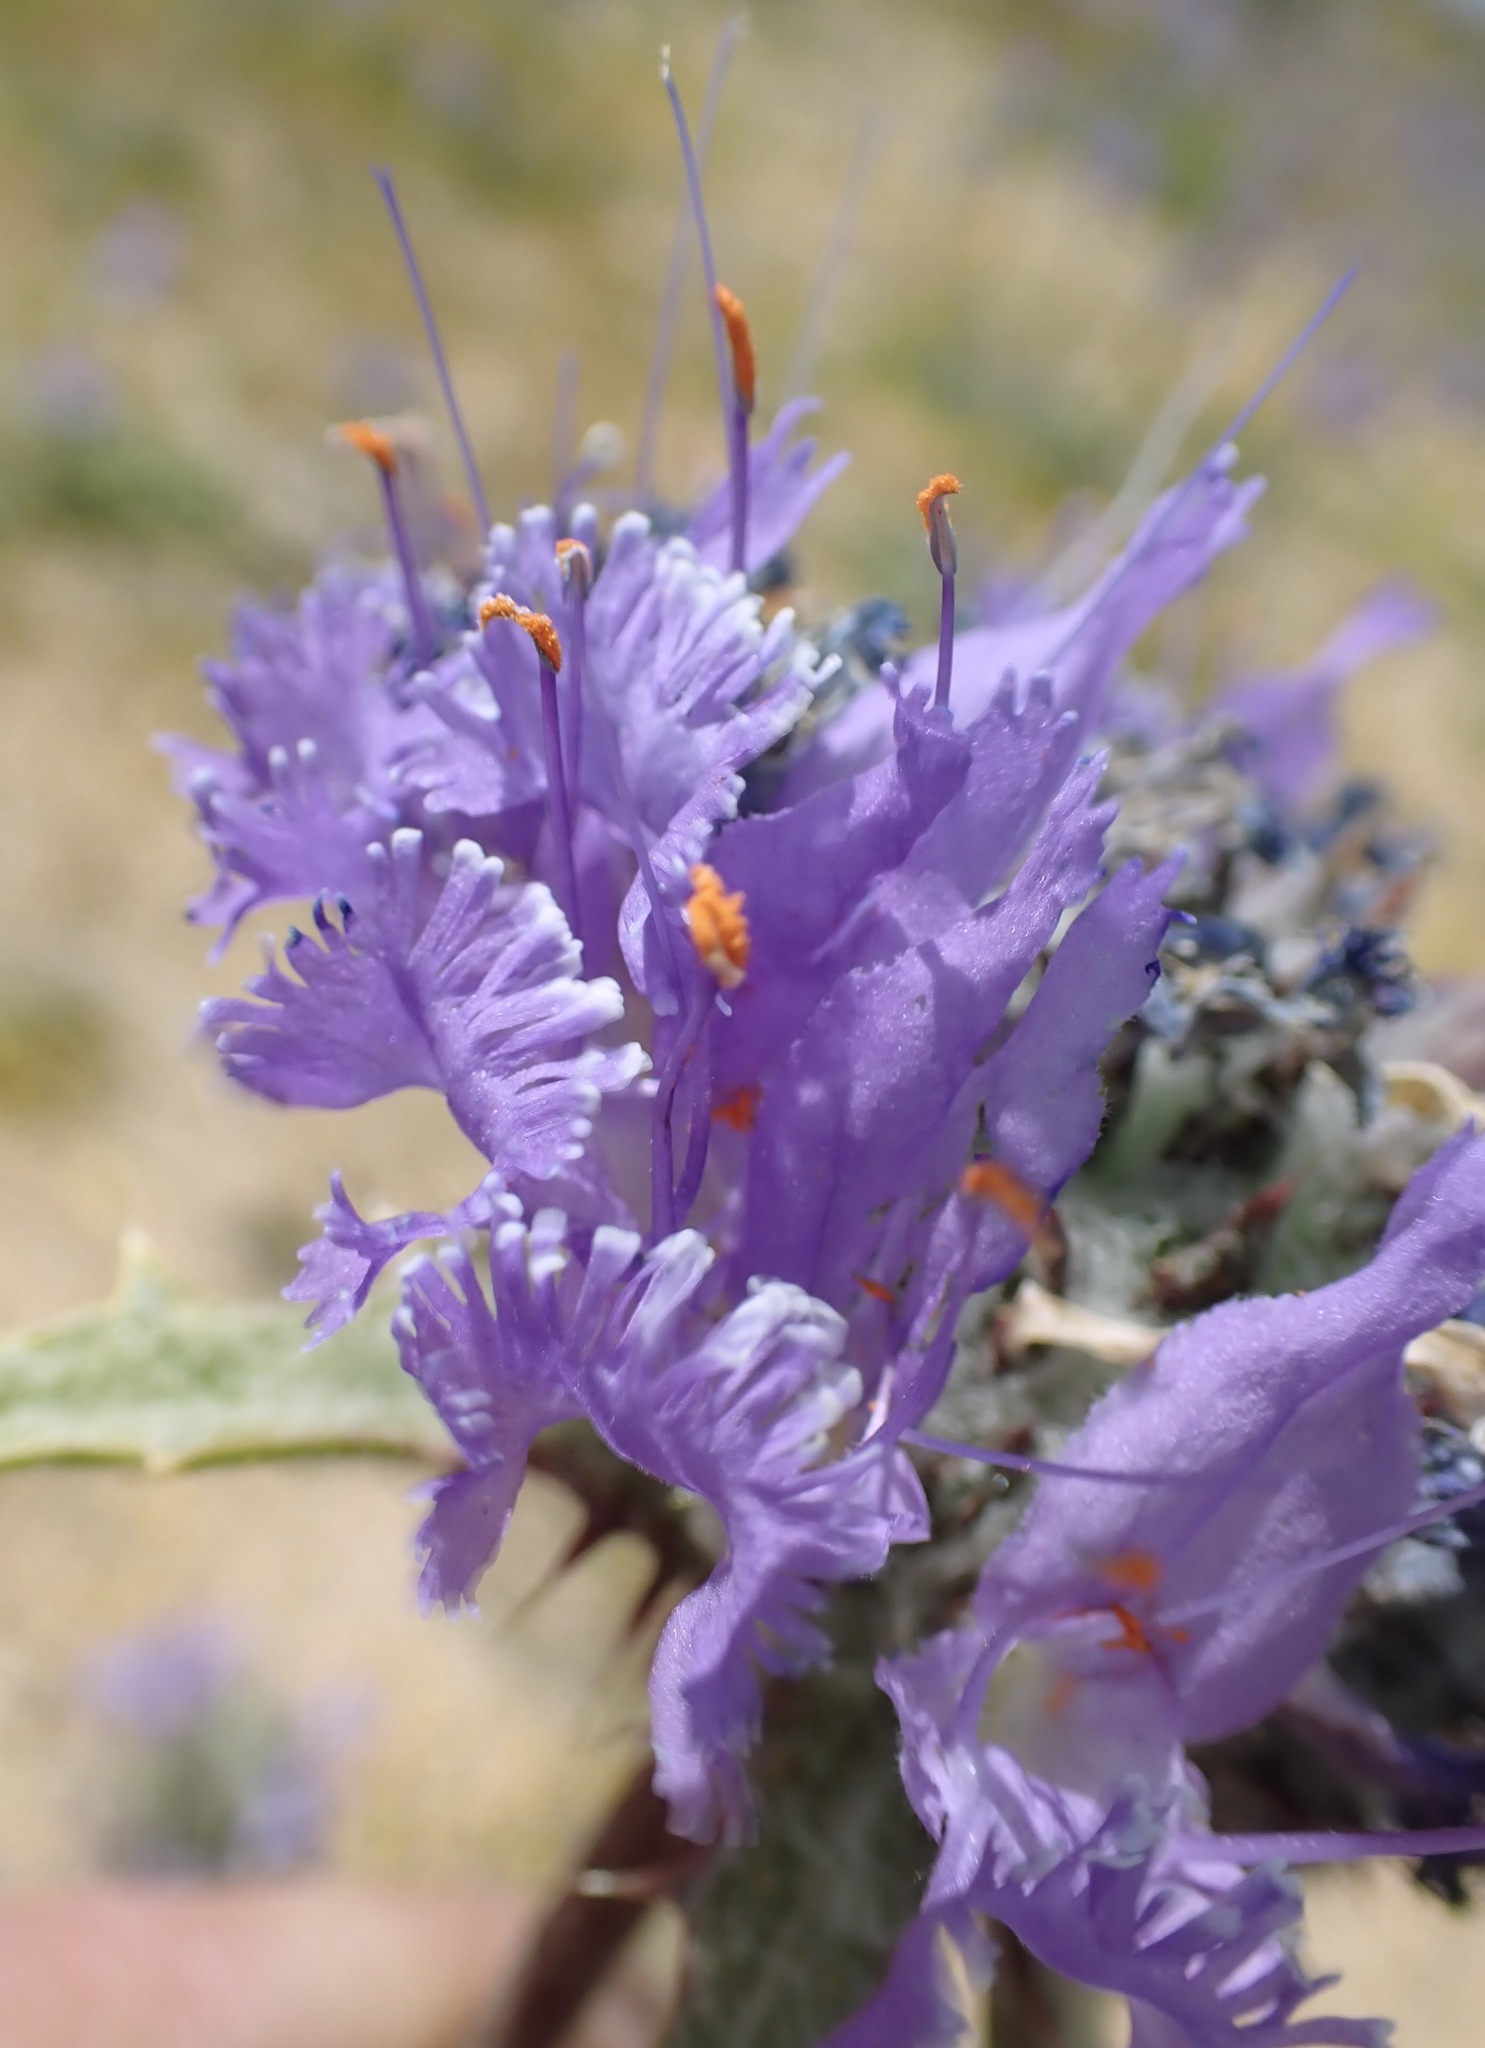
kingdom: Plantae
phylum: Tracheophyta
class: Magnoliopsida
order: Lamiales
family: Lamiaceae
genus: Salvia
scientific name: Salvia carduacea
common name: Thistle sage
